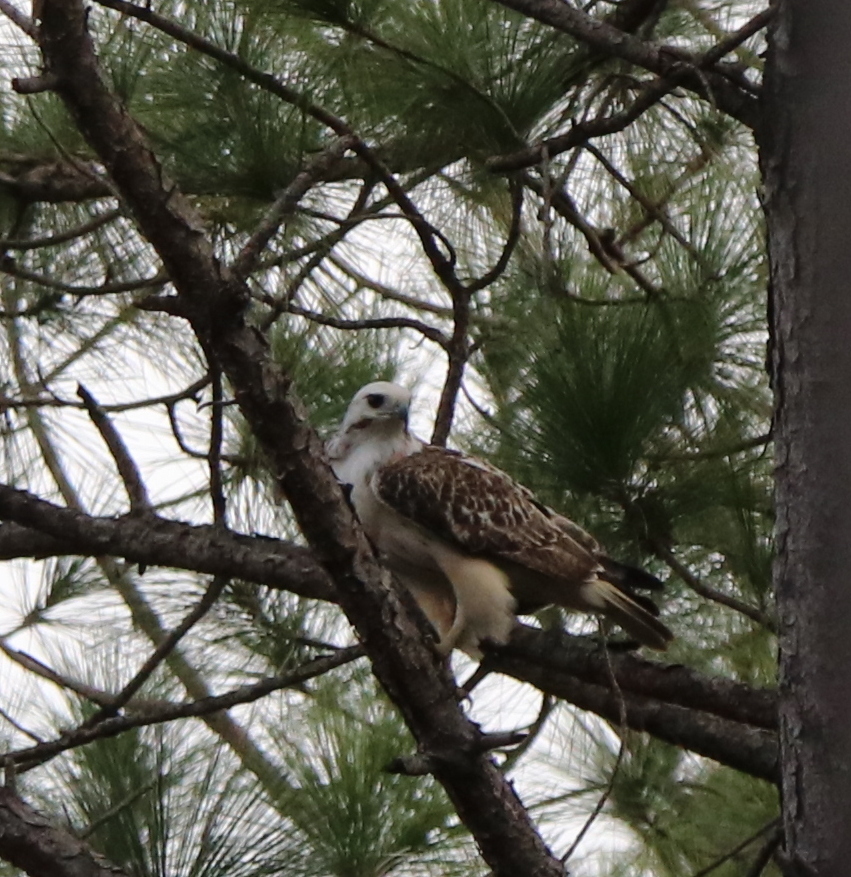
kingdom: Animalia
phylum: Chordata
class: Aves
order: Accipitriformes
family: Accipitridae
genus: Buteo
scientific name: Buteo jamaicensis
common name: Red-tailed hawk
